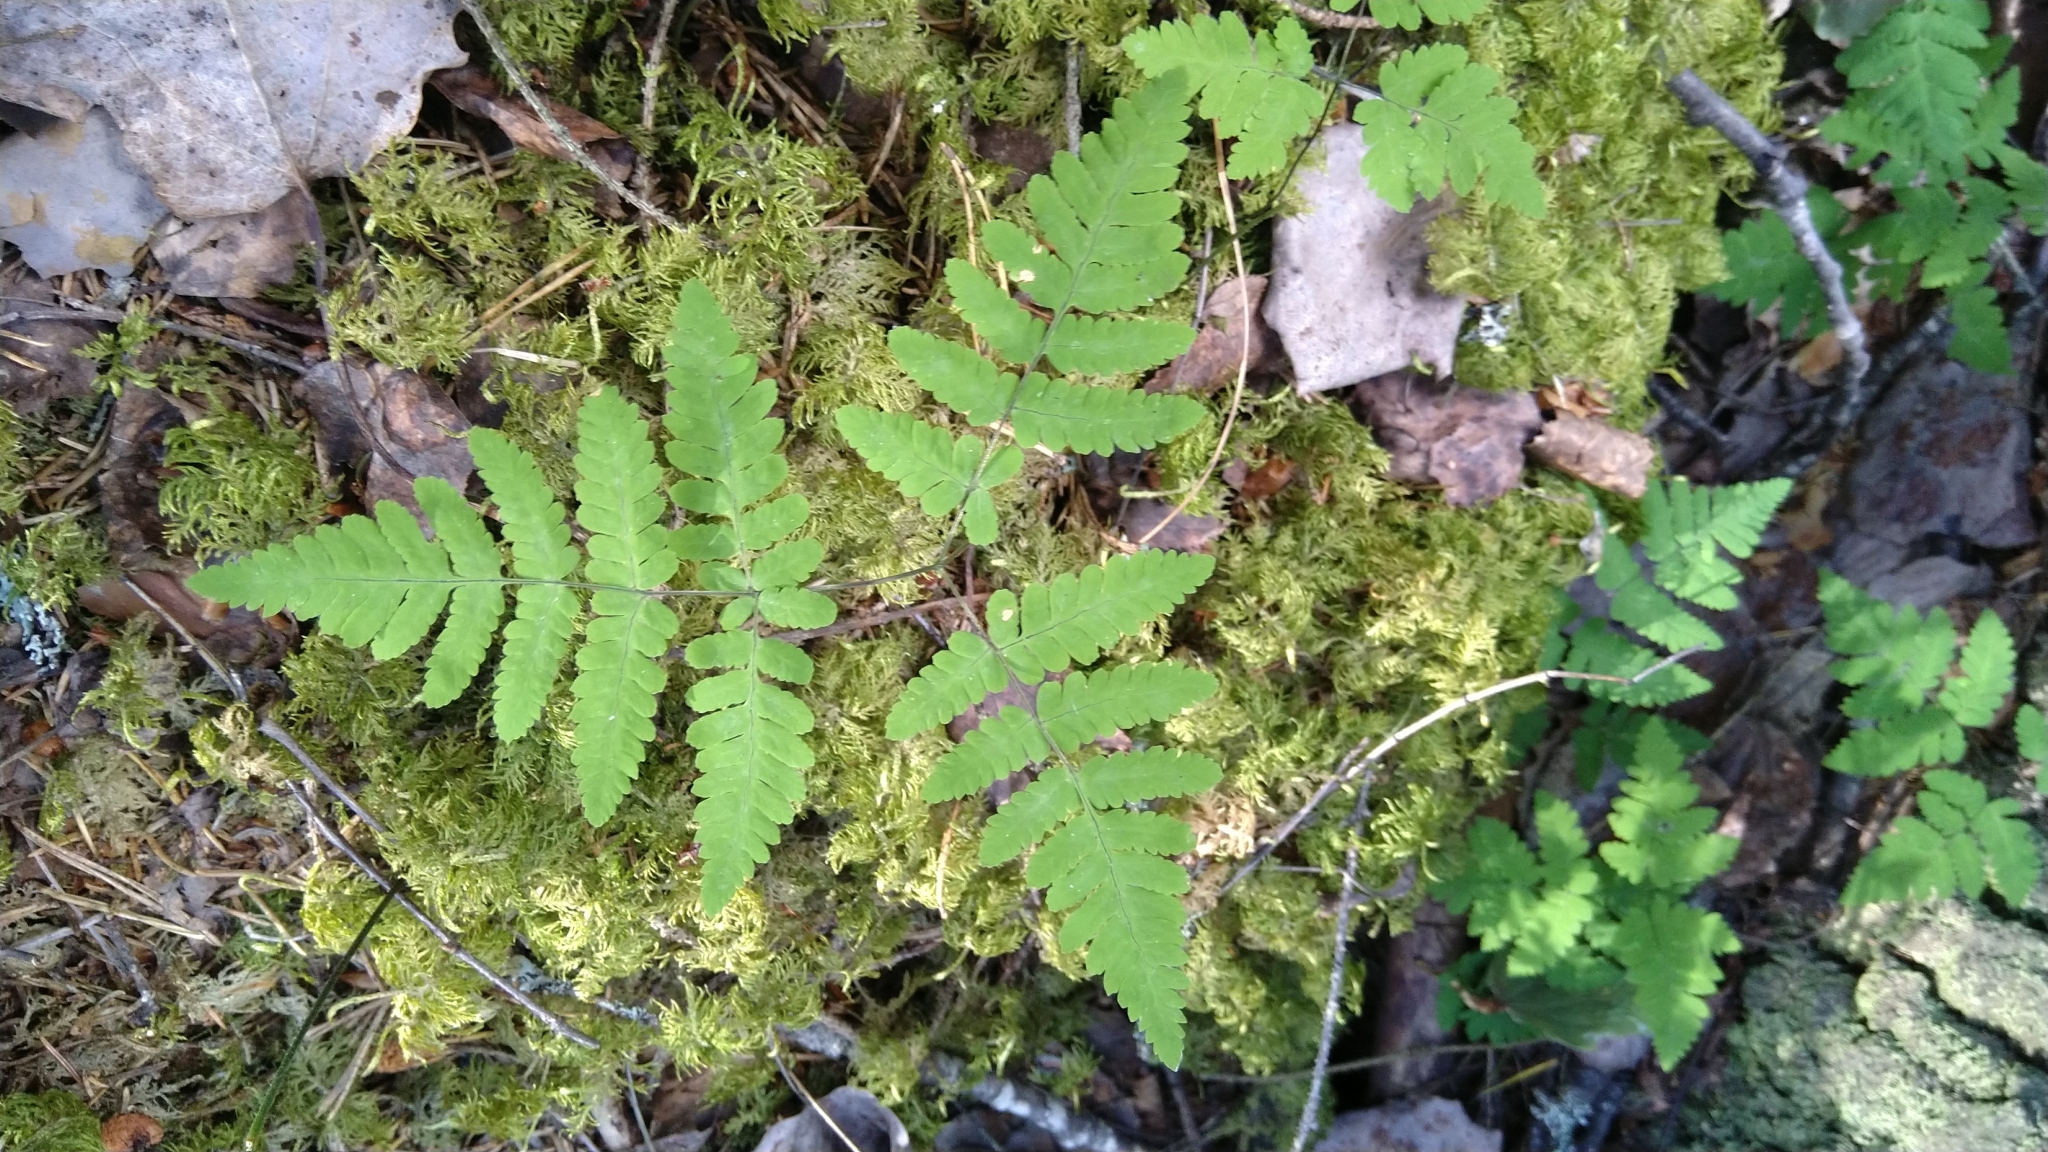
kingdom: Plantae
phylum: Tracheophyta
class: Polypodiopsida
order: Polypodiales
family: Cystopteridaceae
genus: Gymnocarpium
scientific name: Gymnocarpium dryopteris
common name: Oak fern
